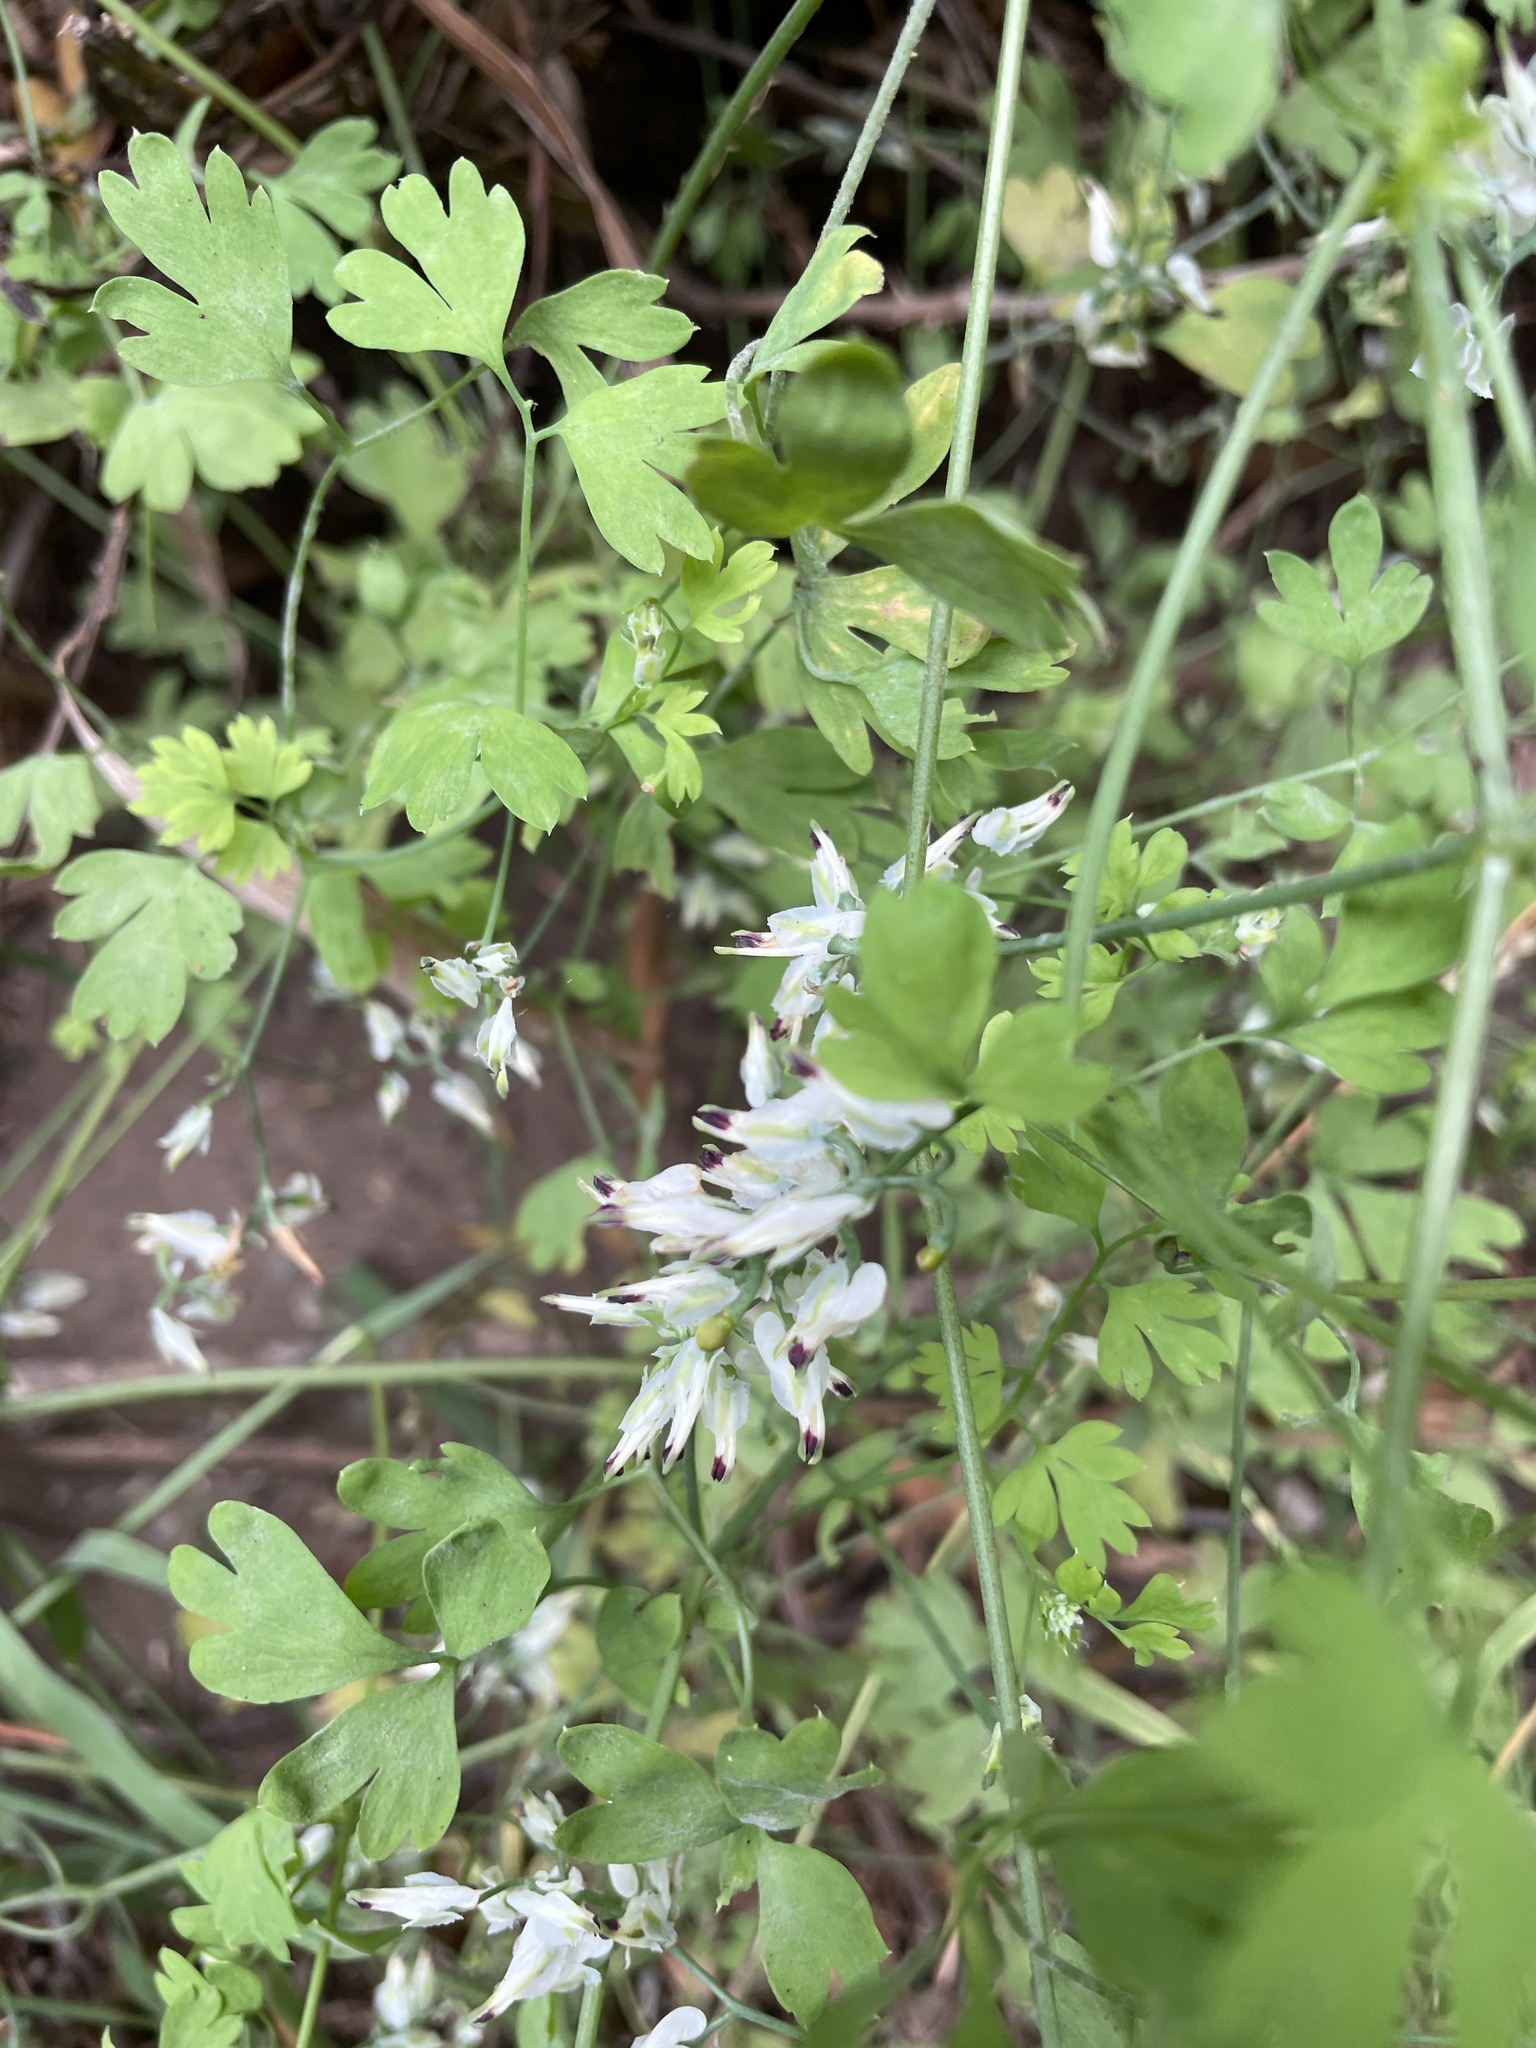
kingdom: Plantae
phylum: Tracheophyta
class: Magnoliopsida
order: Ranunculales
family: Papaveraceae
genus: Fumaria
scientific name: Fumaria capreolata
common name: White ramping-fumitory
